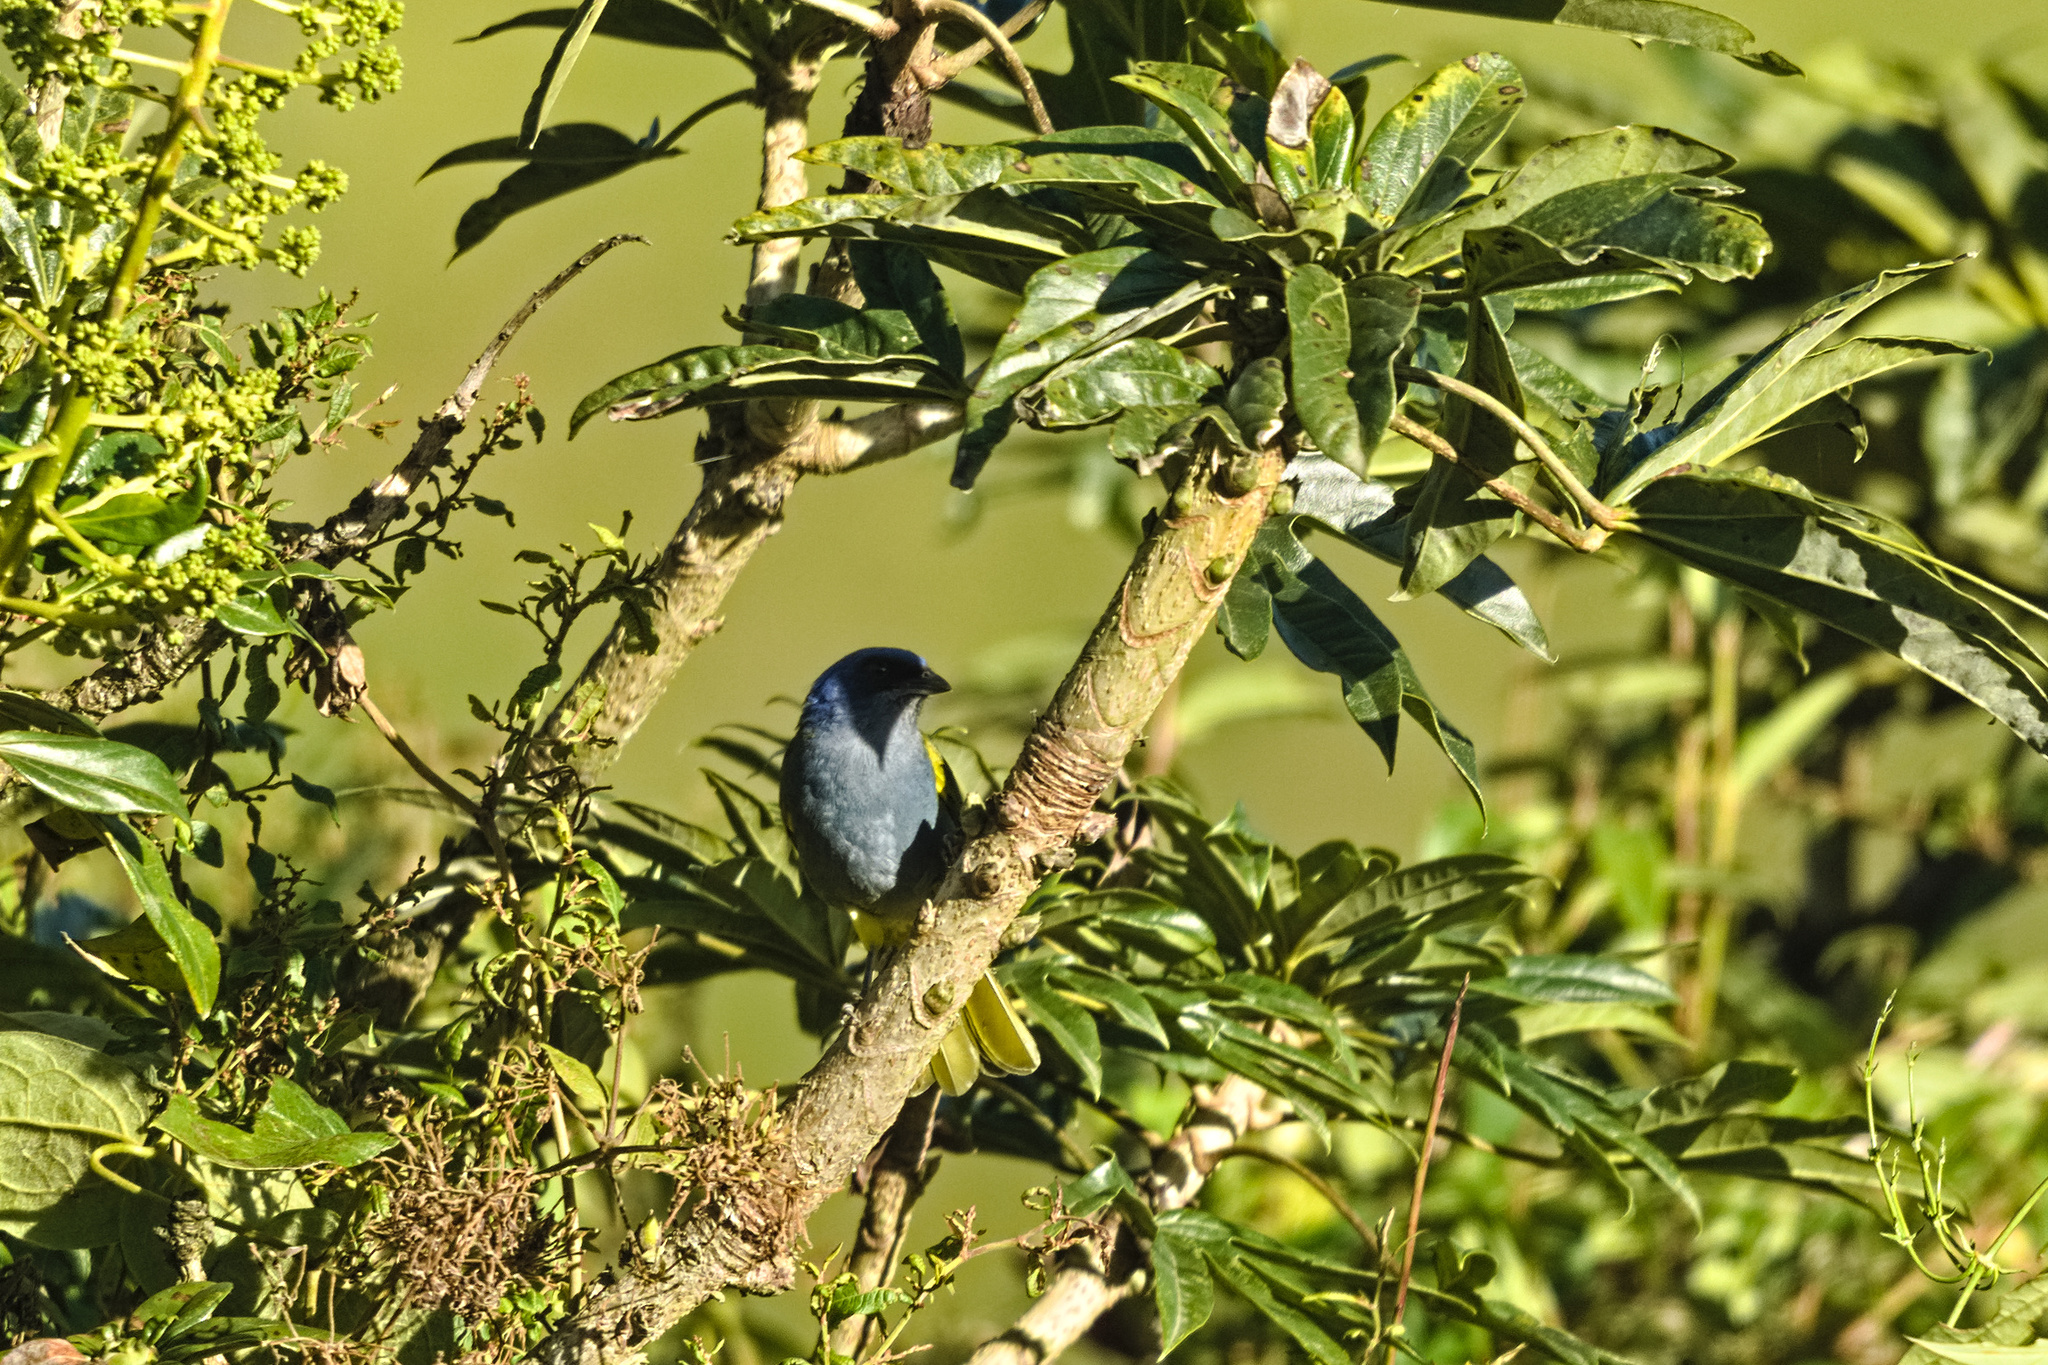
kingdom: Animalia
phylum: Chordata
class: Aves
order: Passeriformes
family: Thraupidae
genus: Sporathraupis
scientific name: Sporathraupis cyanocephala
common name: Blue-capped tanager
